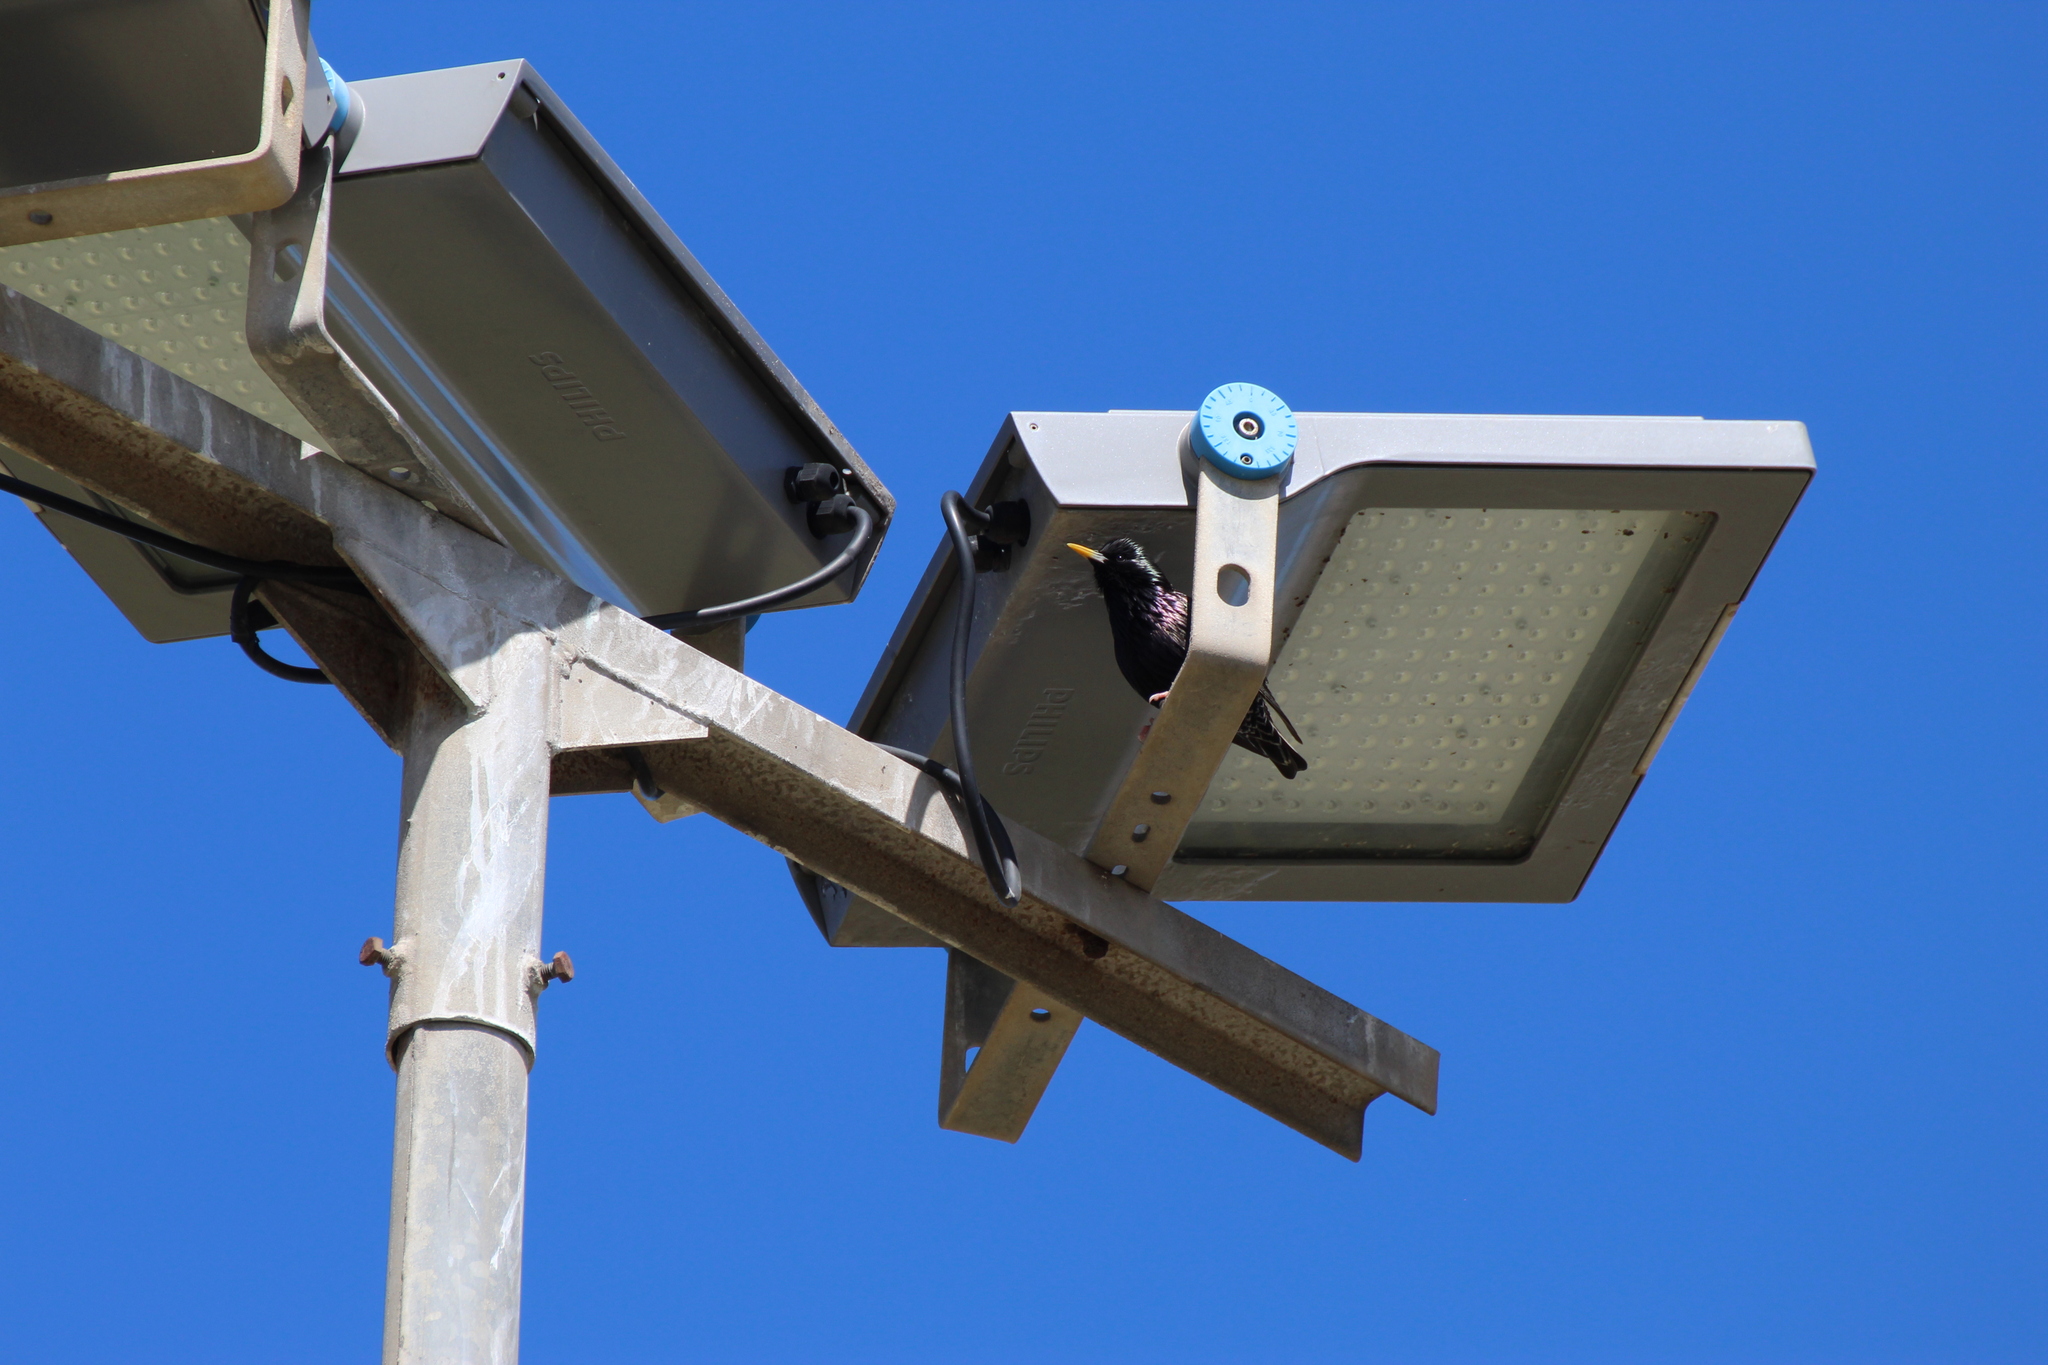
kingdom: Animalia
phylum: Chordata
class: Aves
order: Passeriformes
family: Sturnidae
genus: Sturnus
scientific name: Sturnus unicolor
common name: Spotless starling
